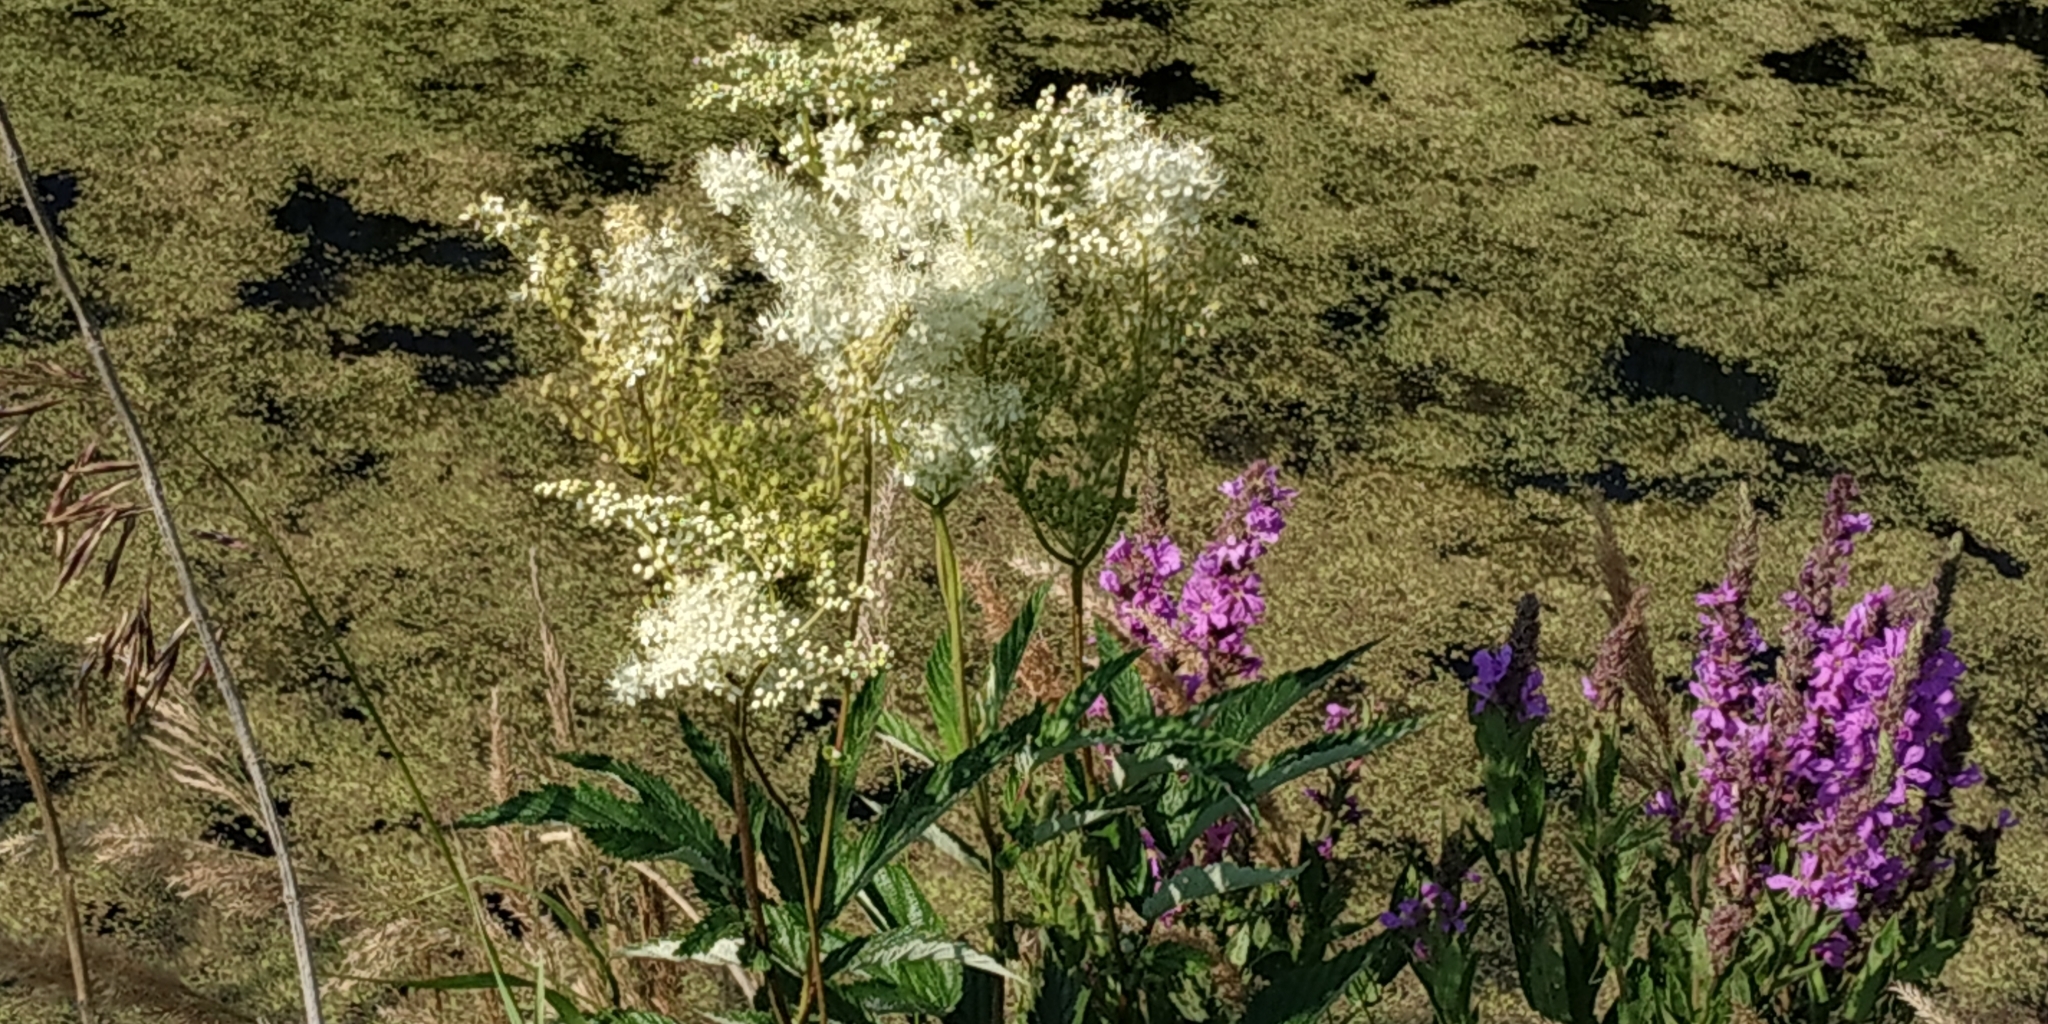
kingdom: Plantae
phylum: Tracheophyta
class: Magnoliopsida
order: Rosales
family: Rosaceae
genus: Filipendula
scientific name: Filipendula ulmaria
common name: Meadowsweet
